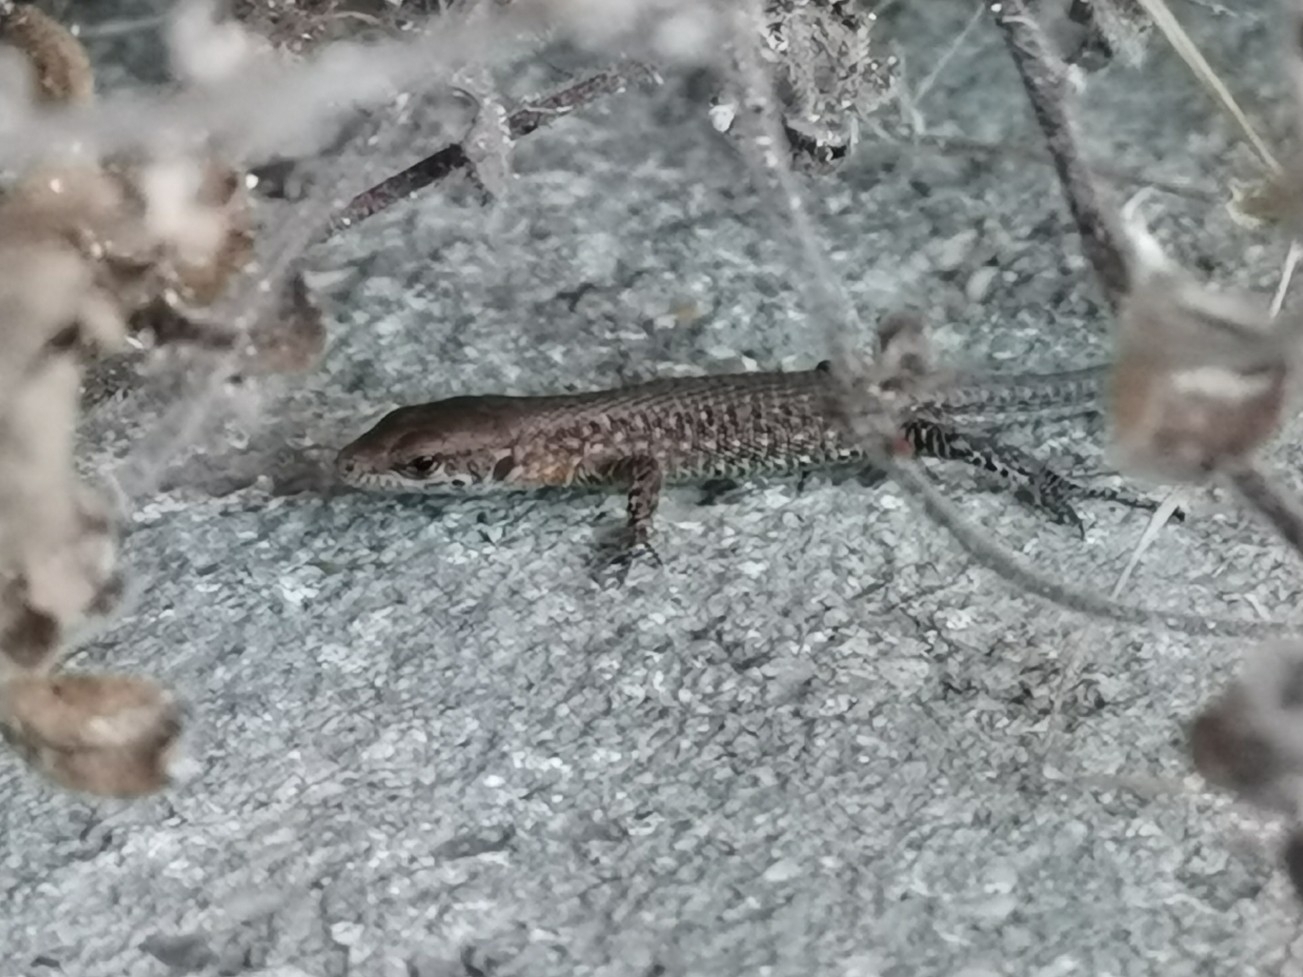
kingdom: Animalia
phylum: Chordata
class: Squamata
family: Lacertidae
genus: Algyroides
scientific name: Algyroides nigropunctatus
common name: Blue-throated keeled lizard
